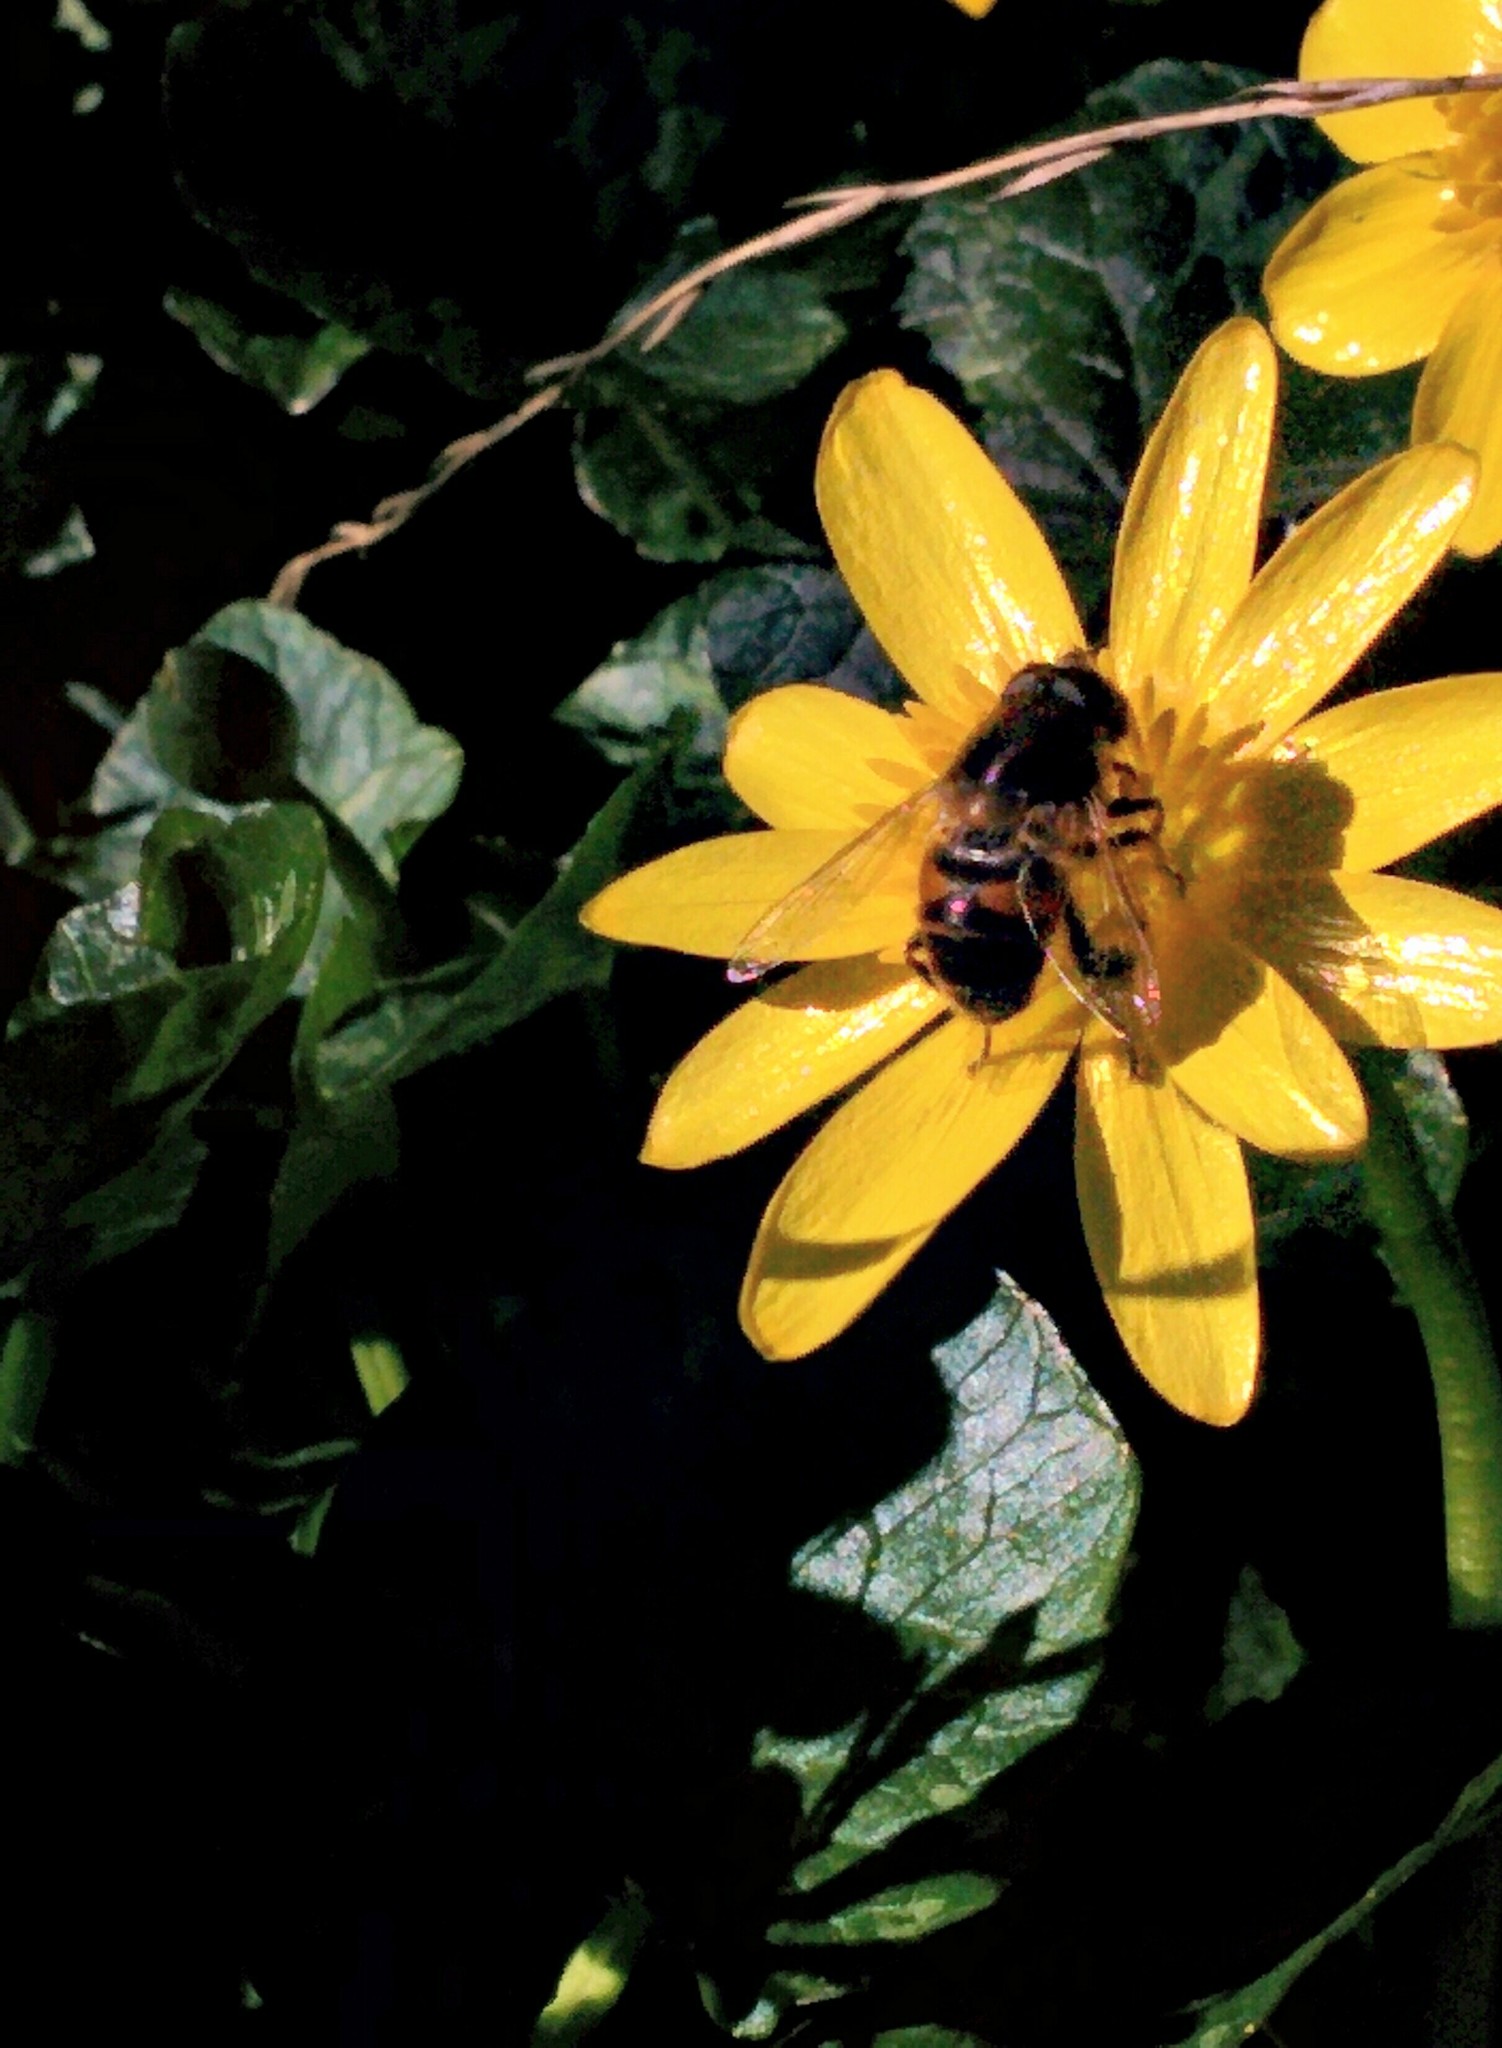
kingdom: Animalia
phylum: Arthropoda
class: Insecta
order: Diptera
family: Syrphidae
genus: Eristalis
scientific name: Eristalis tenax
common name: Drone fly
